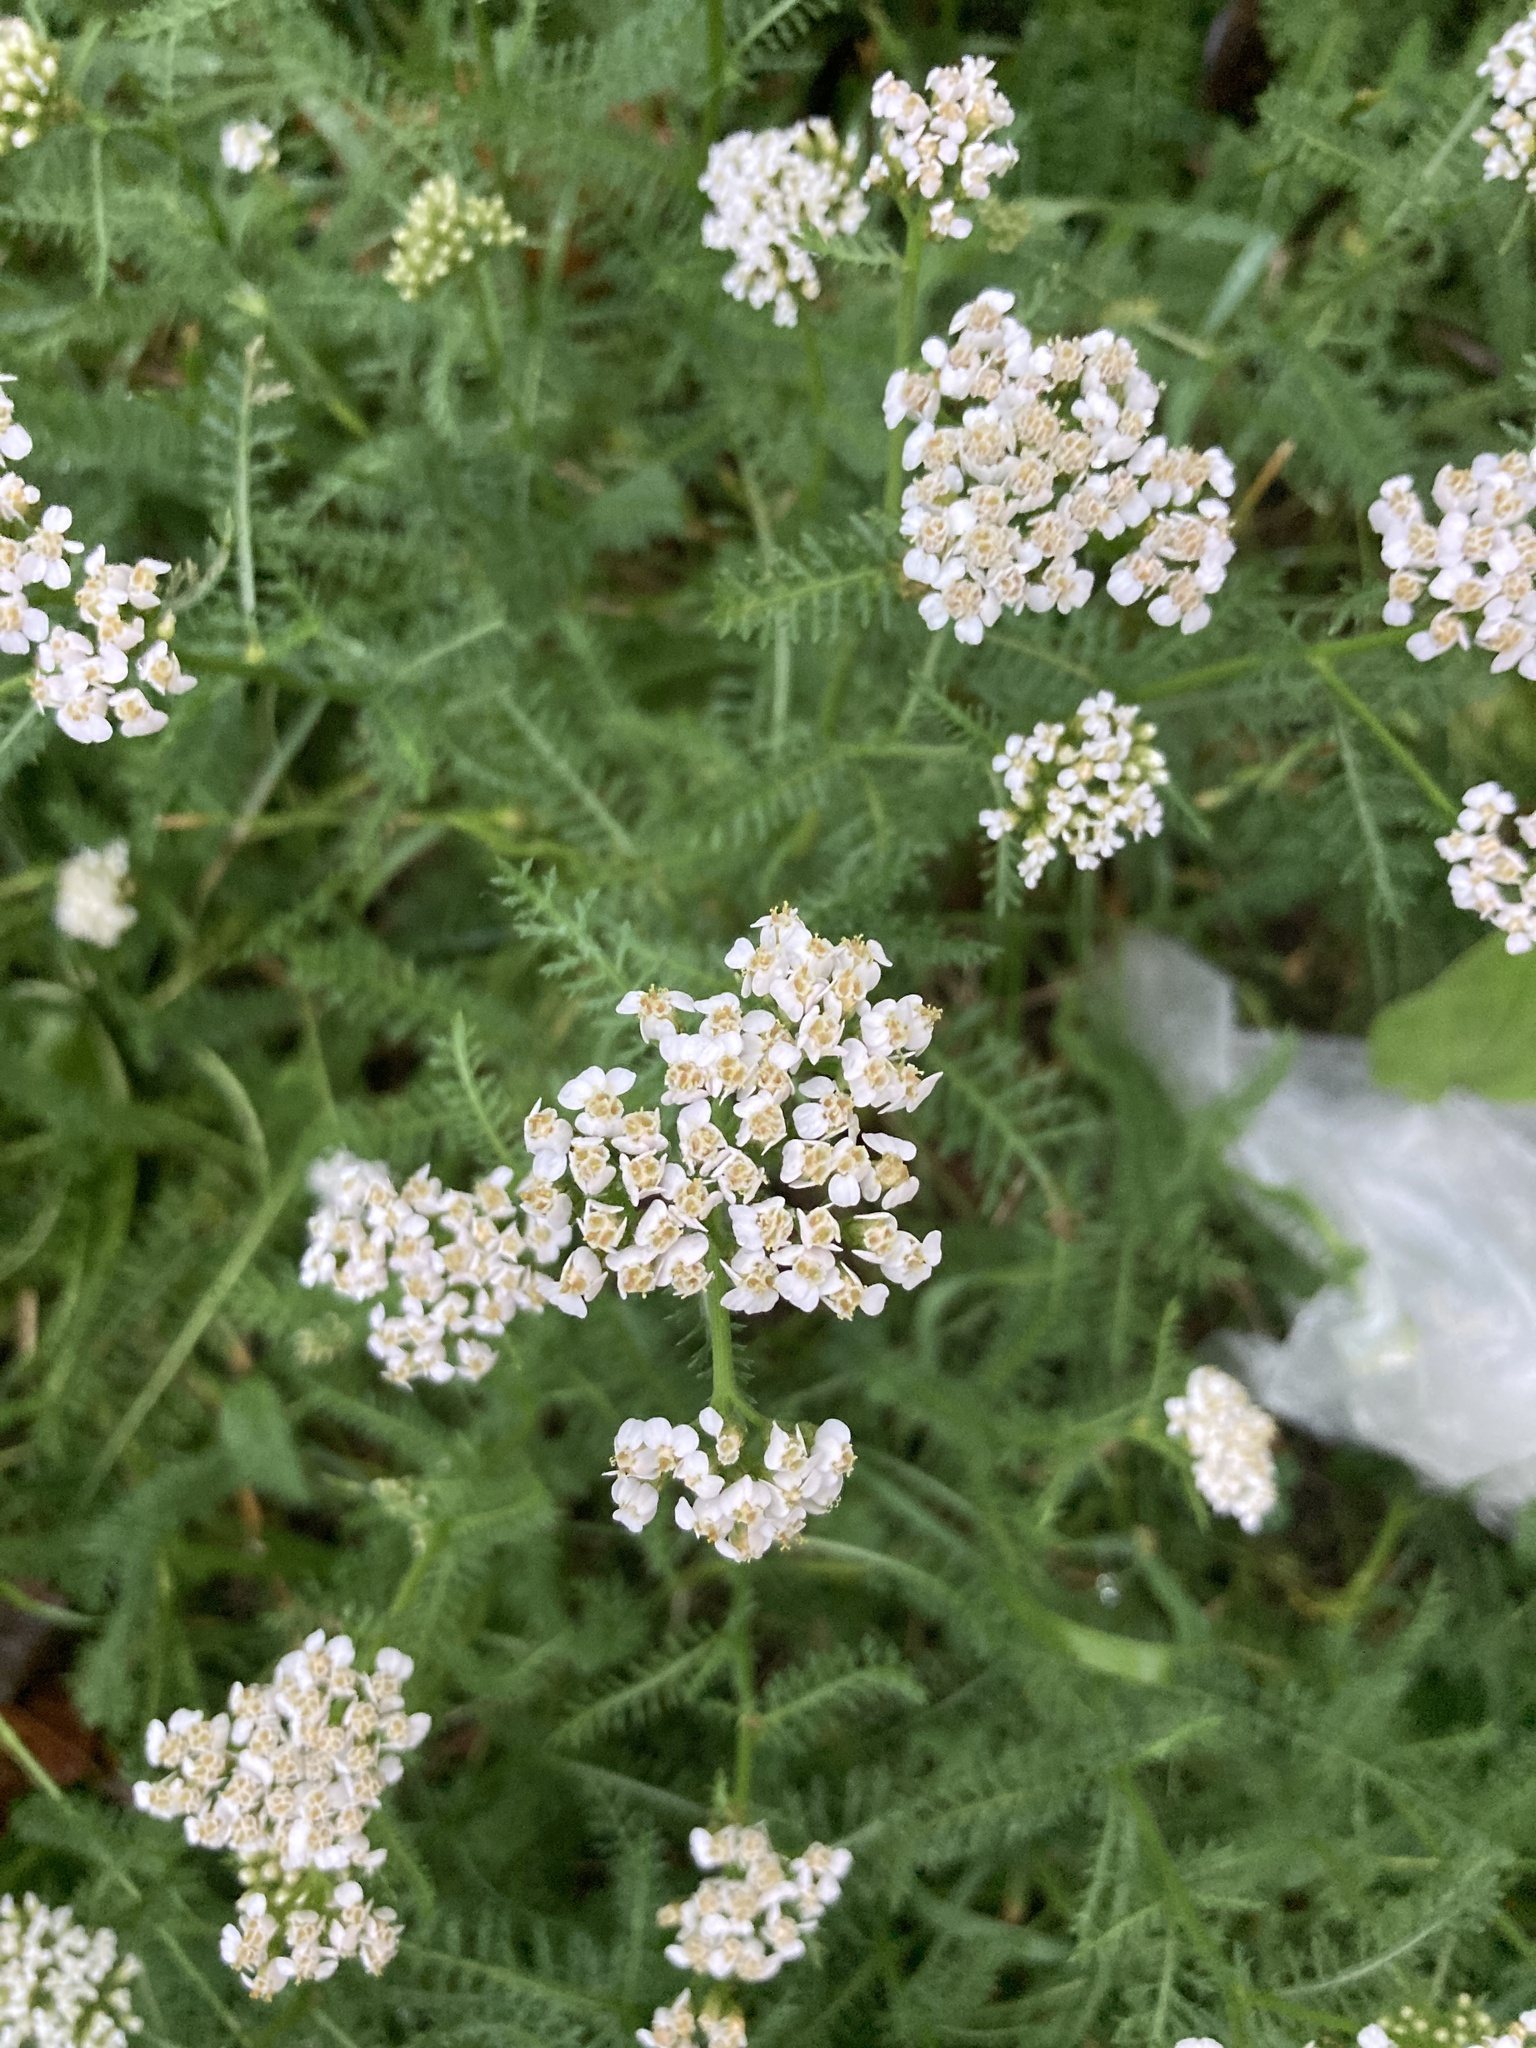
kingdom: Plantae
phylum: Tracheophyta
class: Magnoliopsida
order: Asterales
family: Asteraceae
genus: Achillea
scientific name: Achillea millefolium
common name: Yarrow
